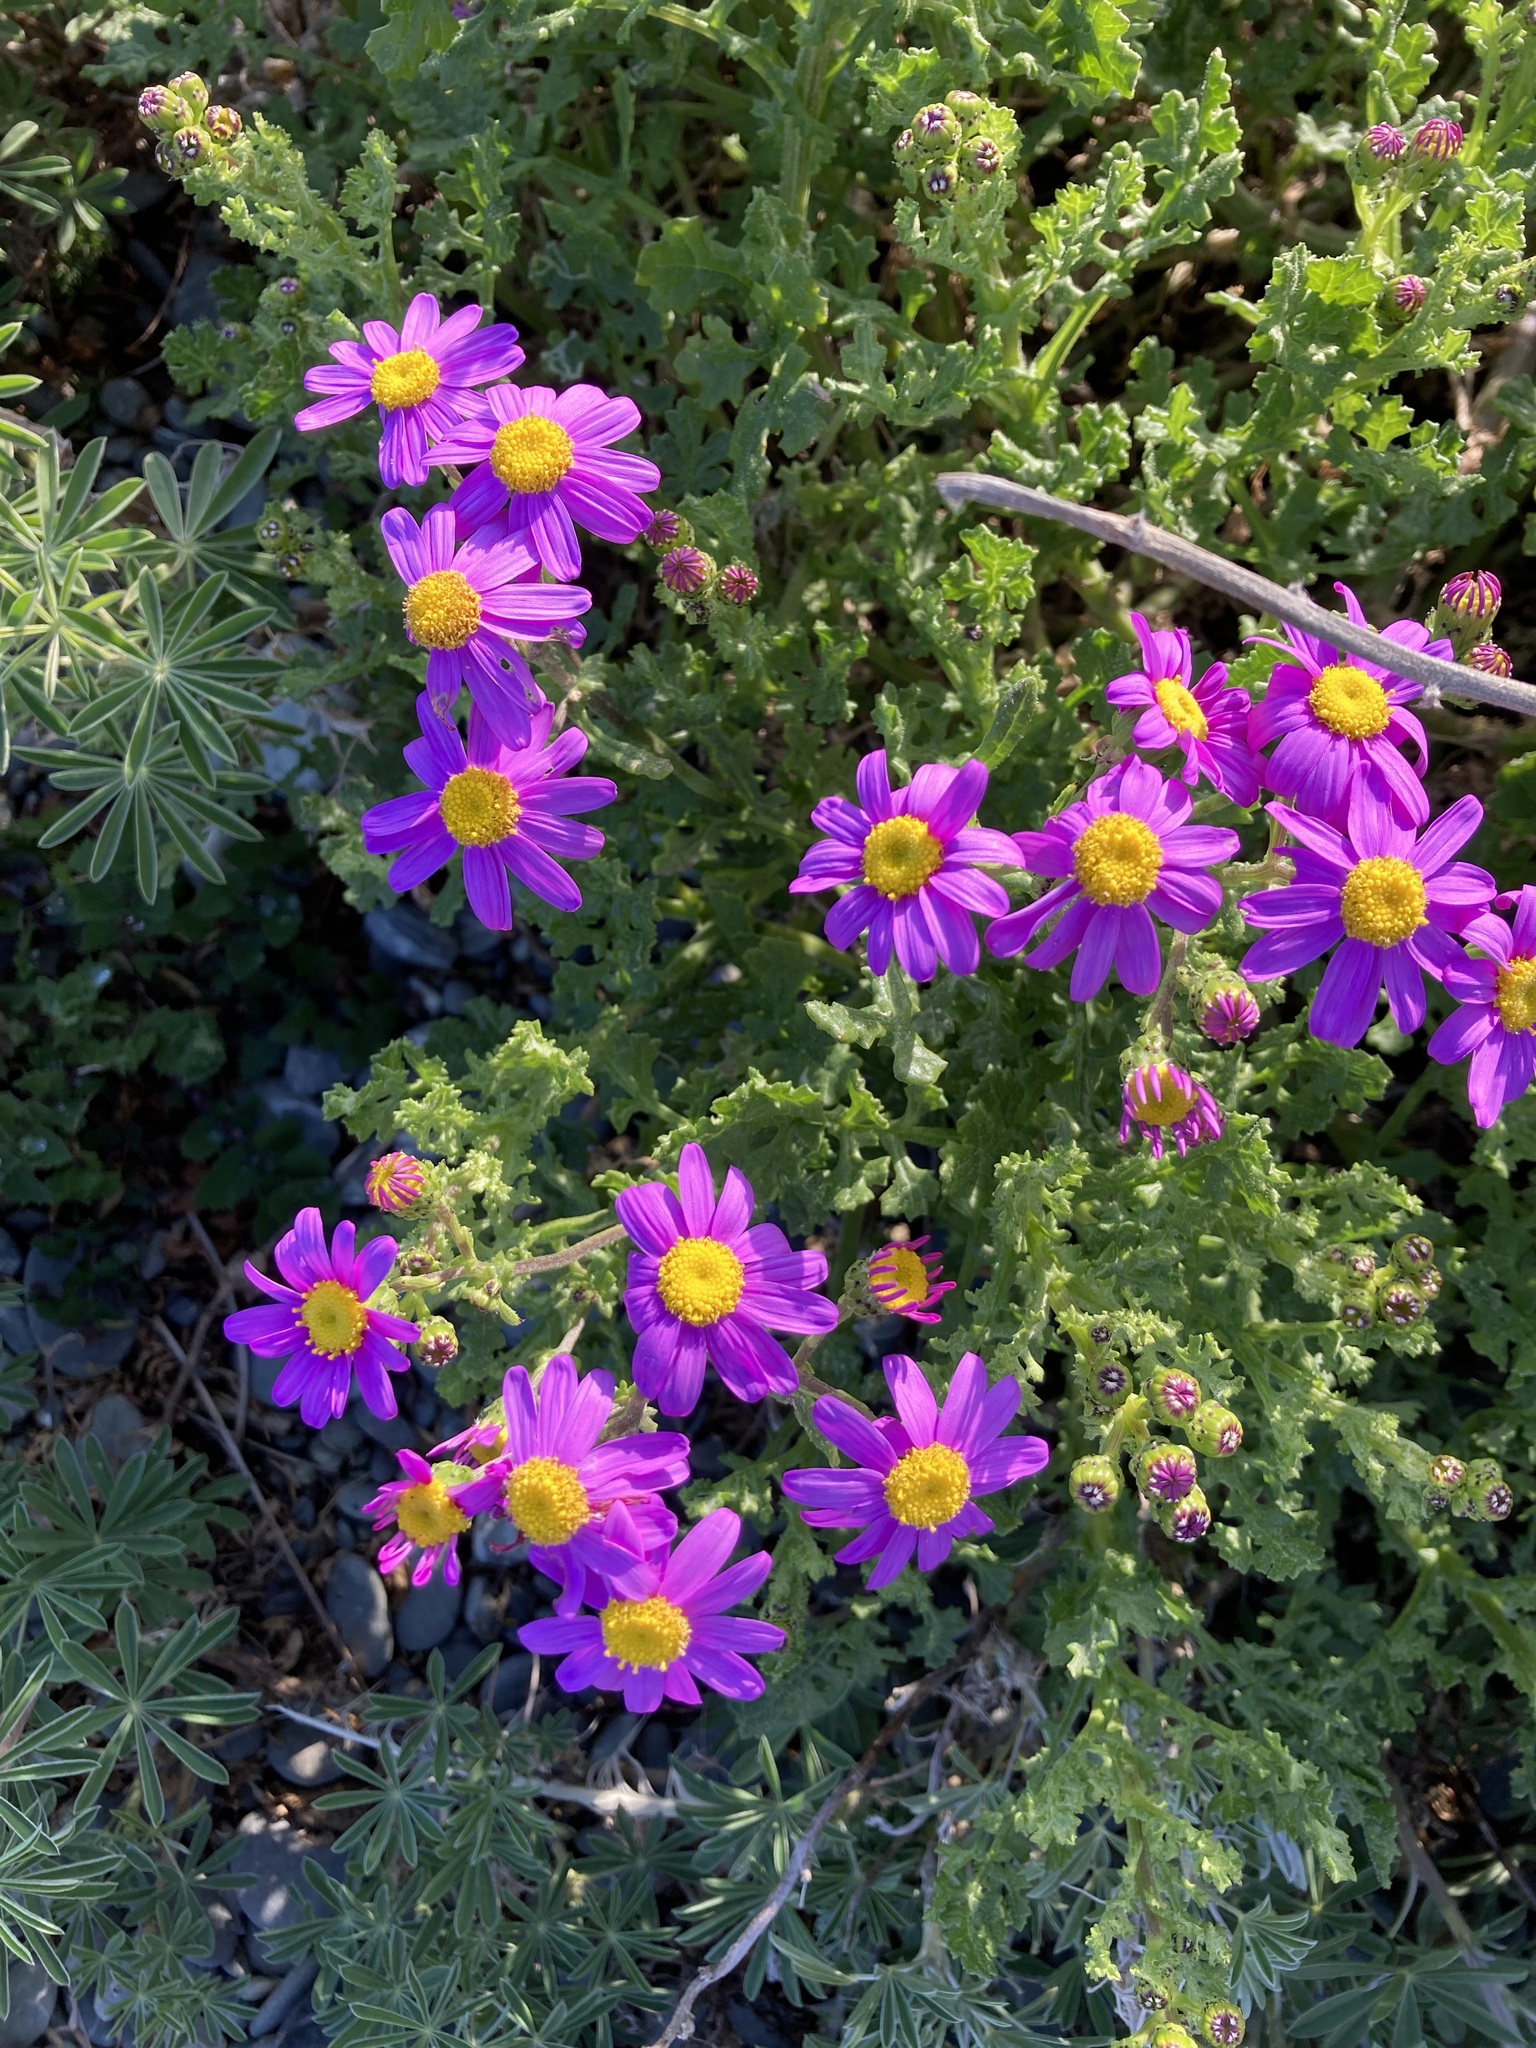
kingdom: Plantae
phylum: Tracheophyta
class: Magnoliopsida
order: Asterales
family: Asteraceae
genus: Senecio
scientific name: Senecio elegans
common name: Purple groundsel
